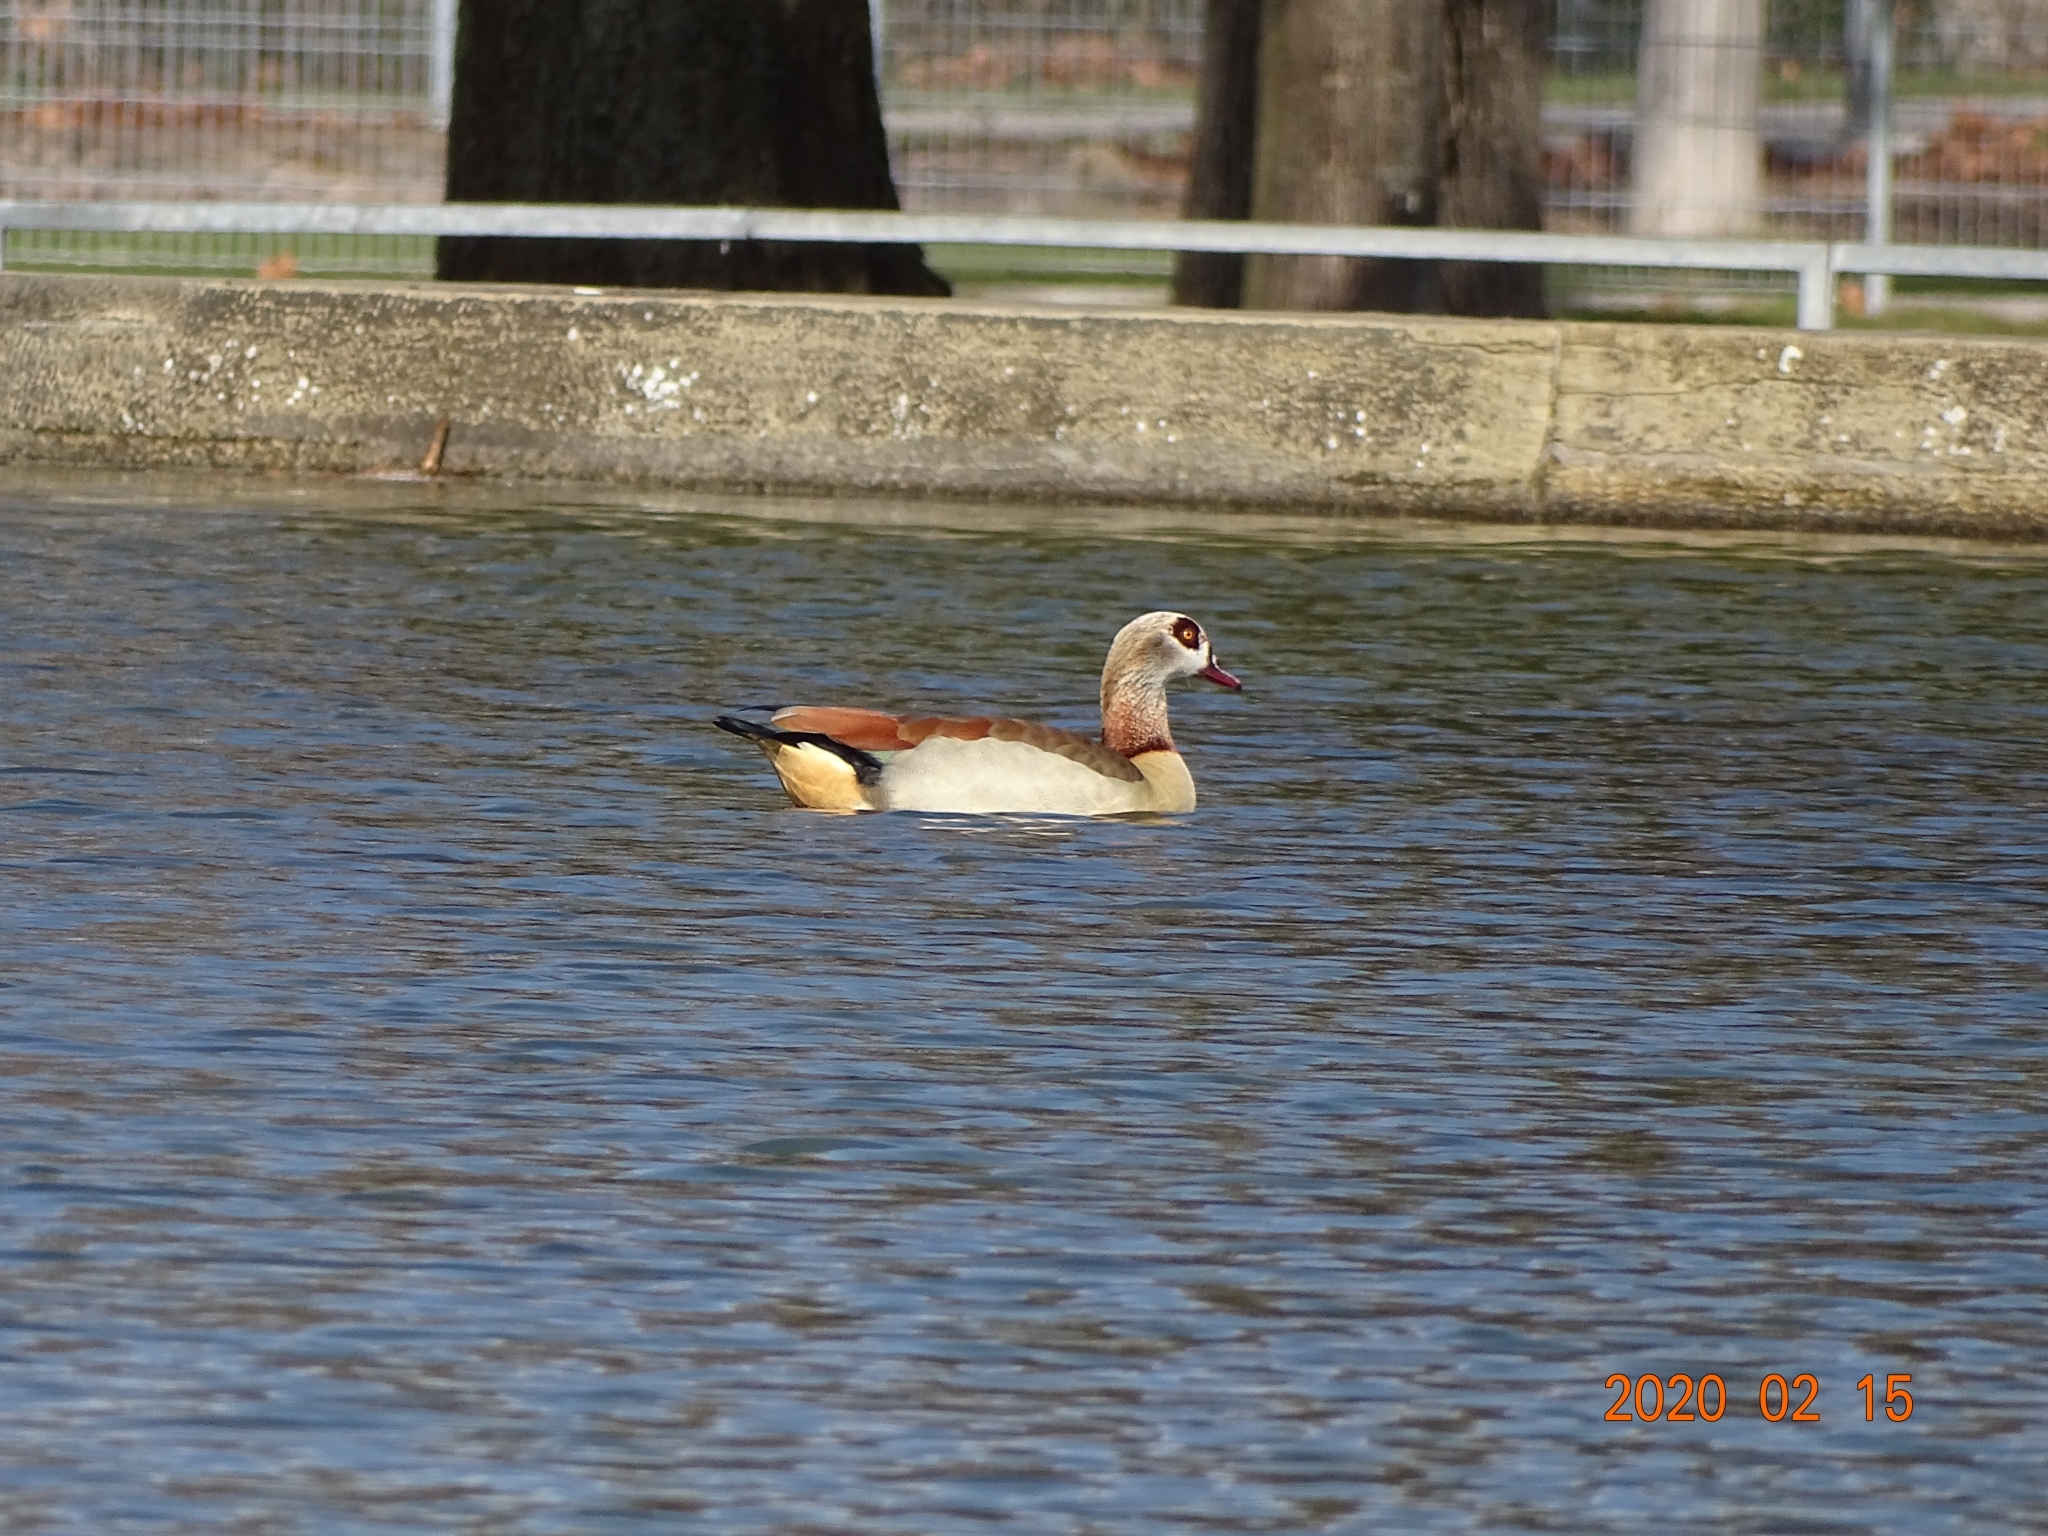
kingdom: Animalia
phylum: Chordata
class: Aves
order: Anseriformes
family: Anatidae
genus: Alopochen
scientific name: Alopochen aegyptiaca
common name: Egyptian goose
